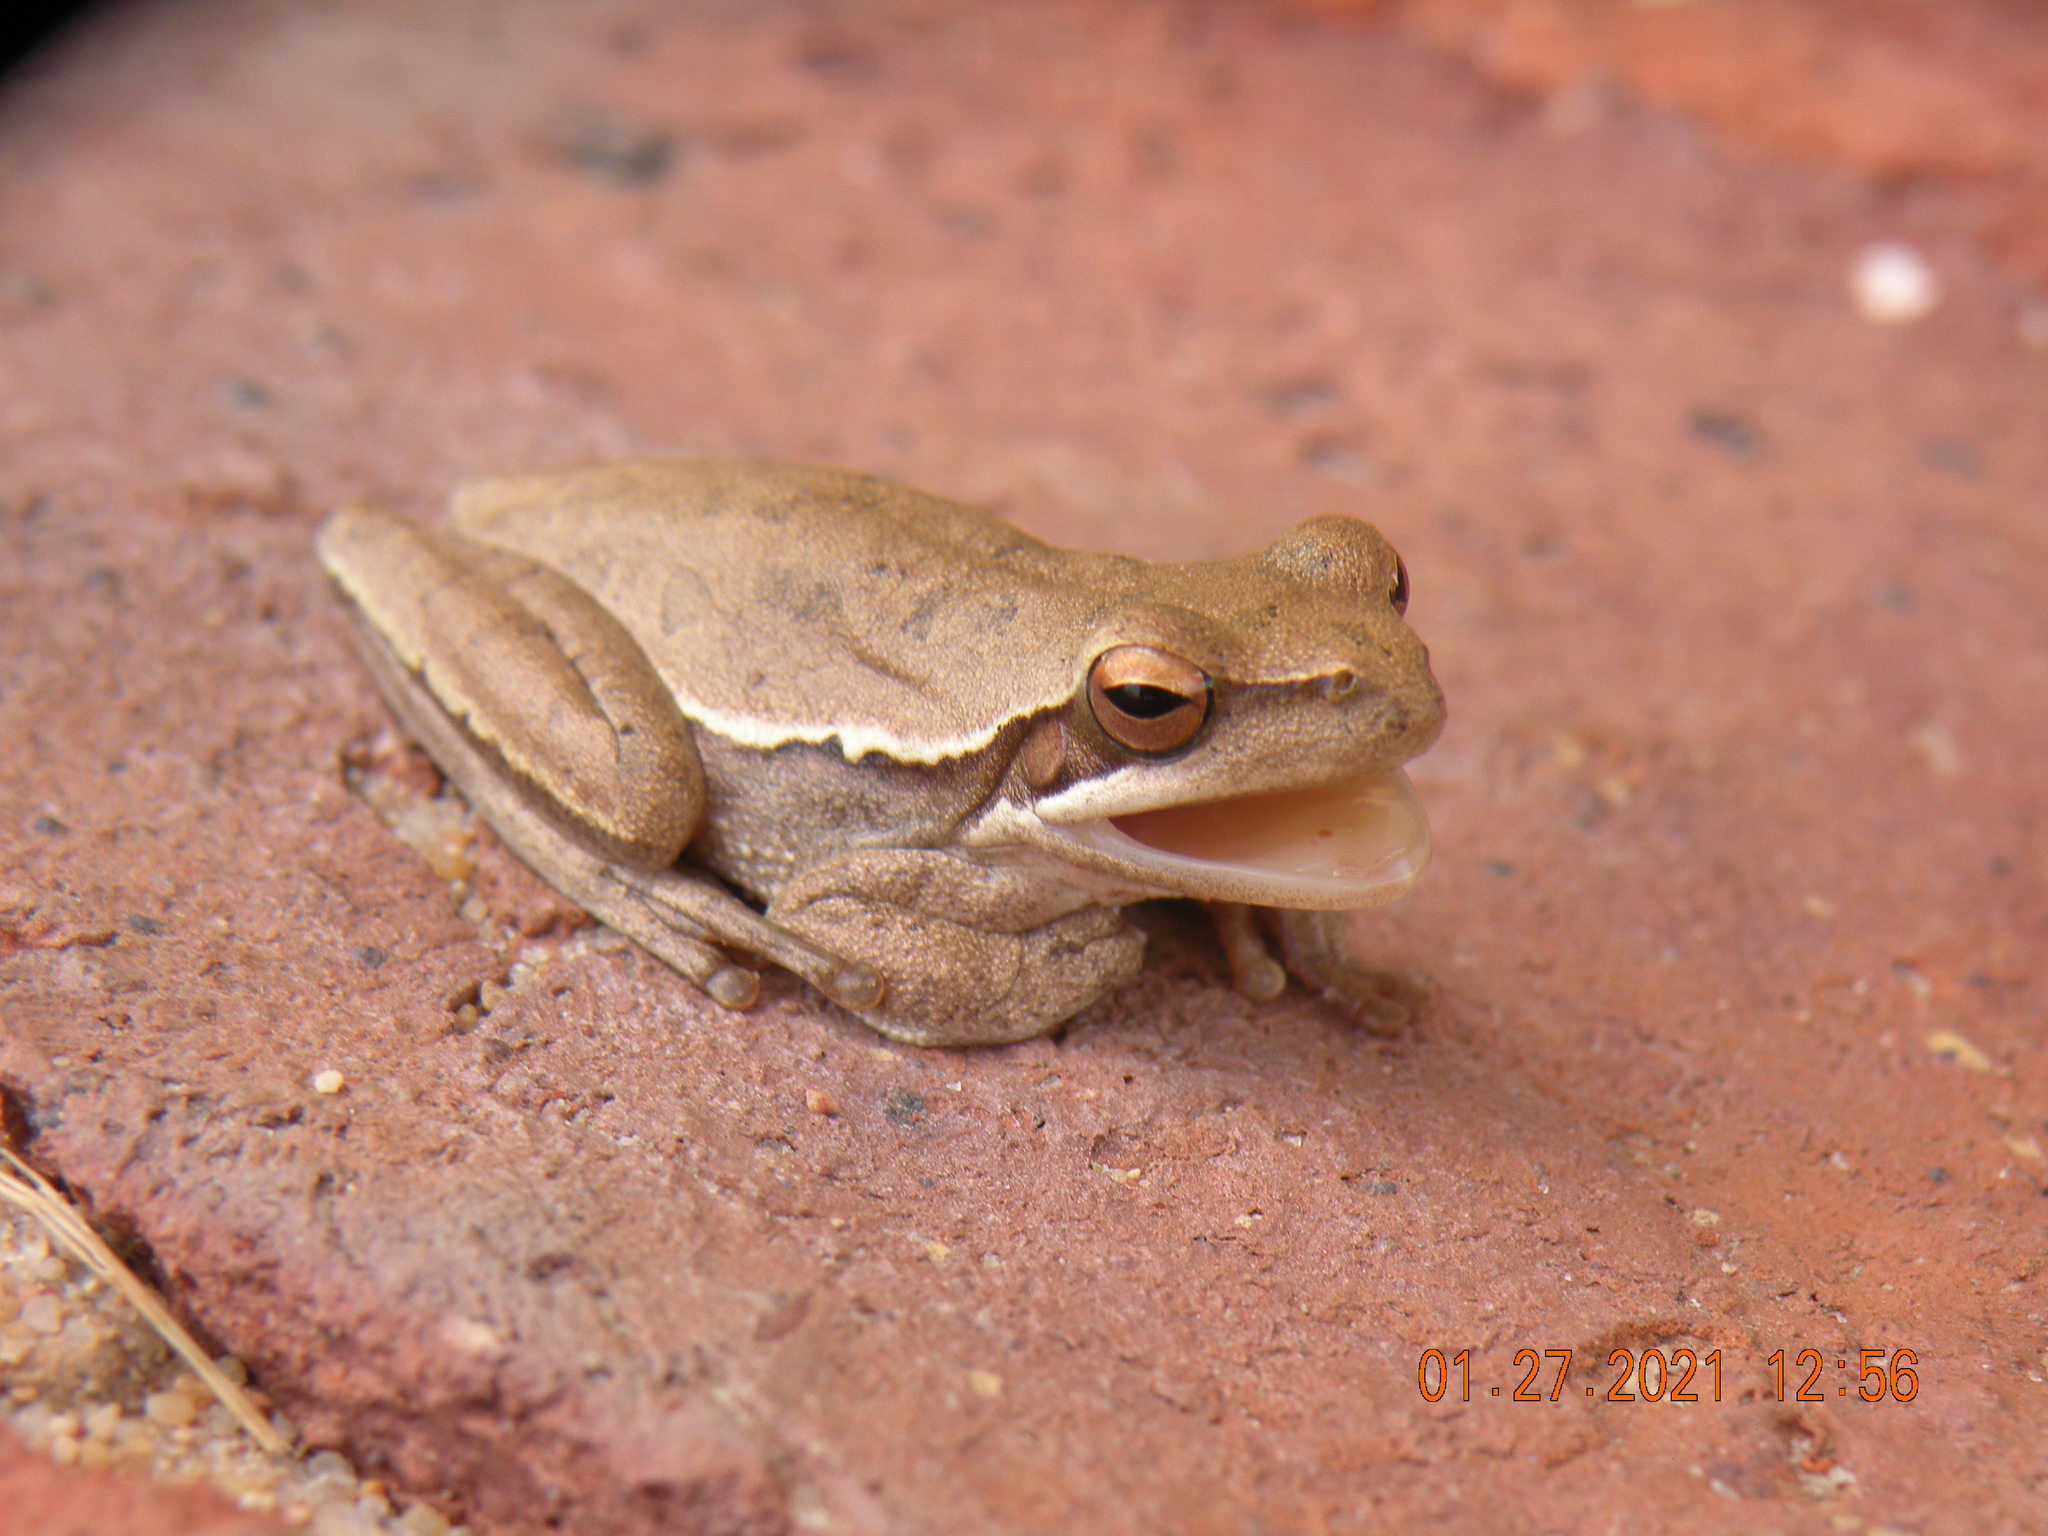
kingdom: Animalia
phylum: Chordata
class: Amphibia
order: Anura
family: Hylidae
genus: Boana
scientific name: Boana pulchella
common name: Montevideo treefrog
